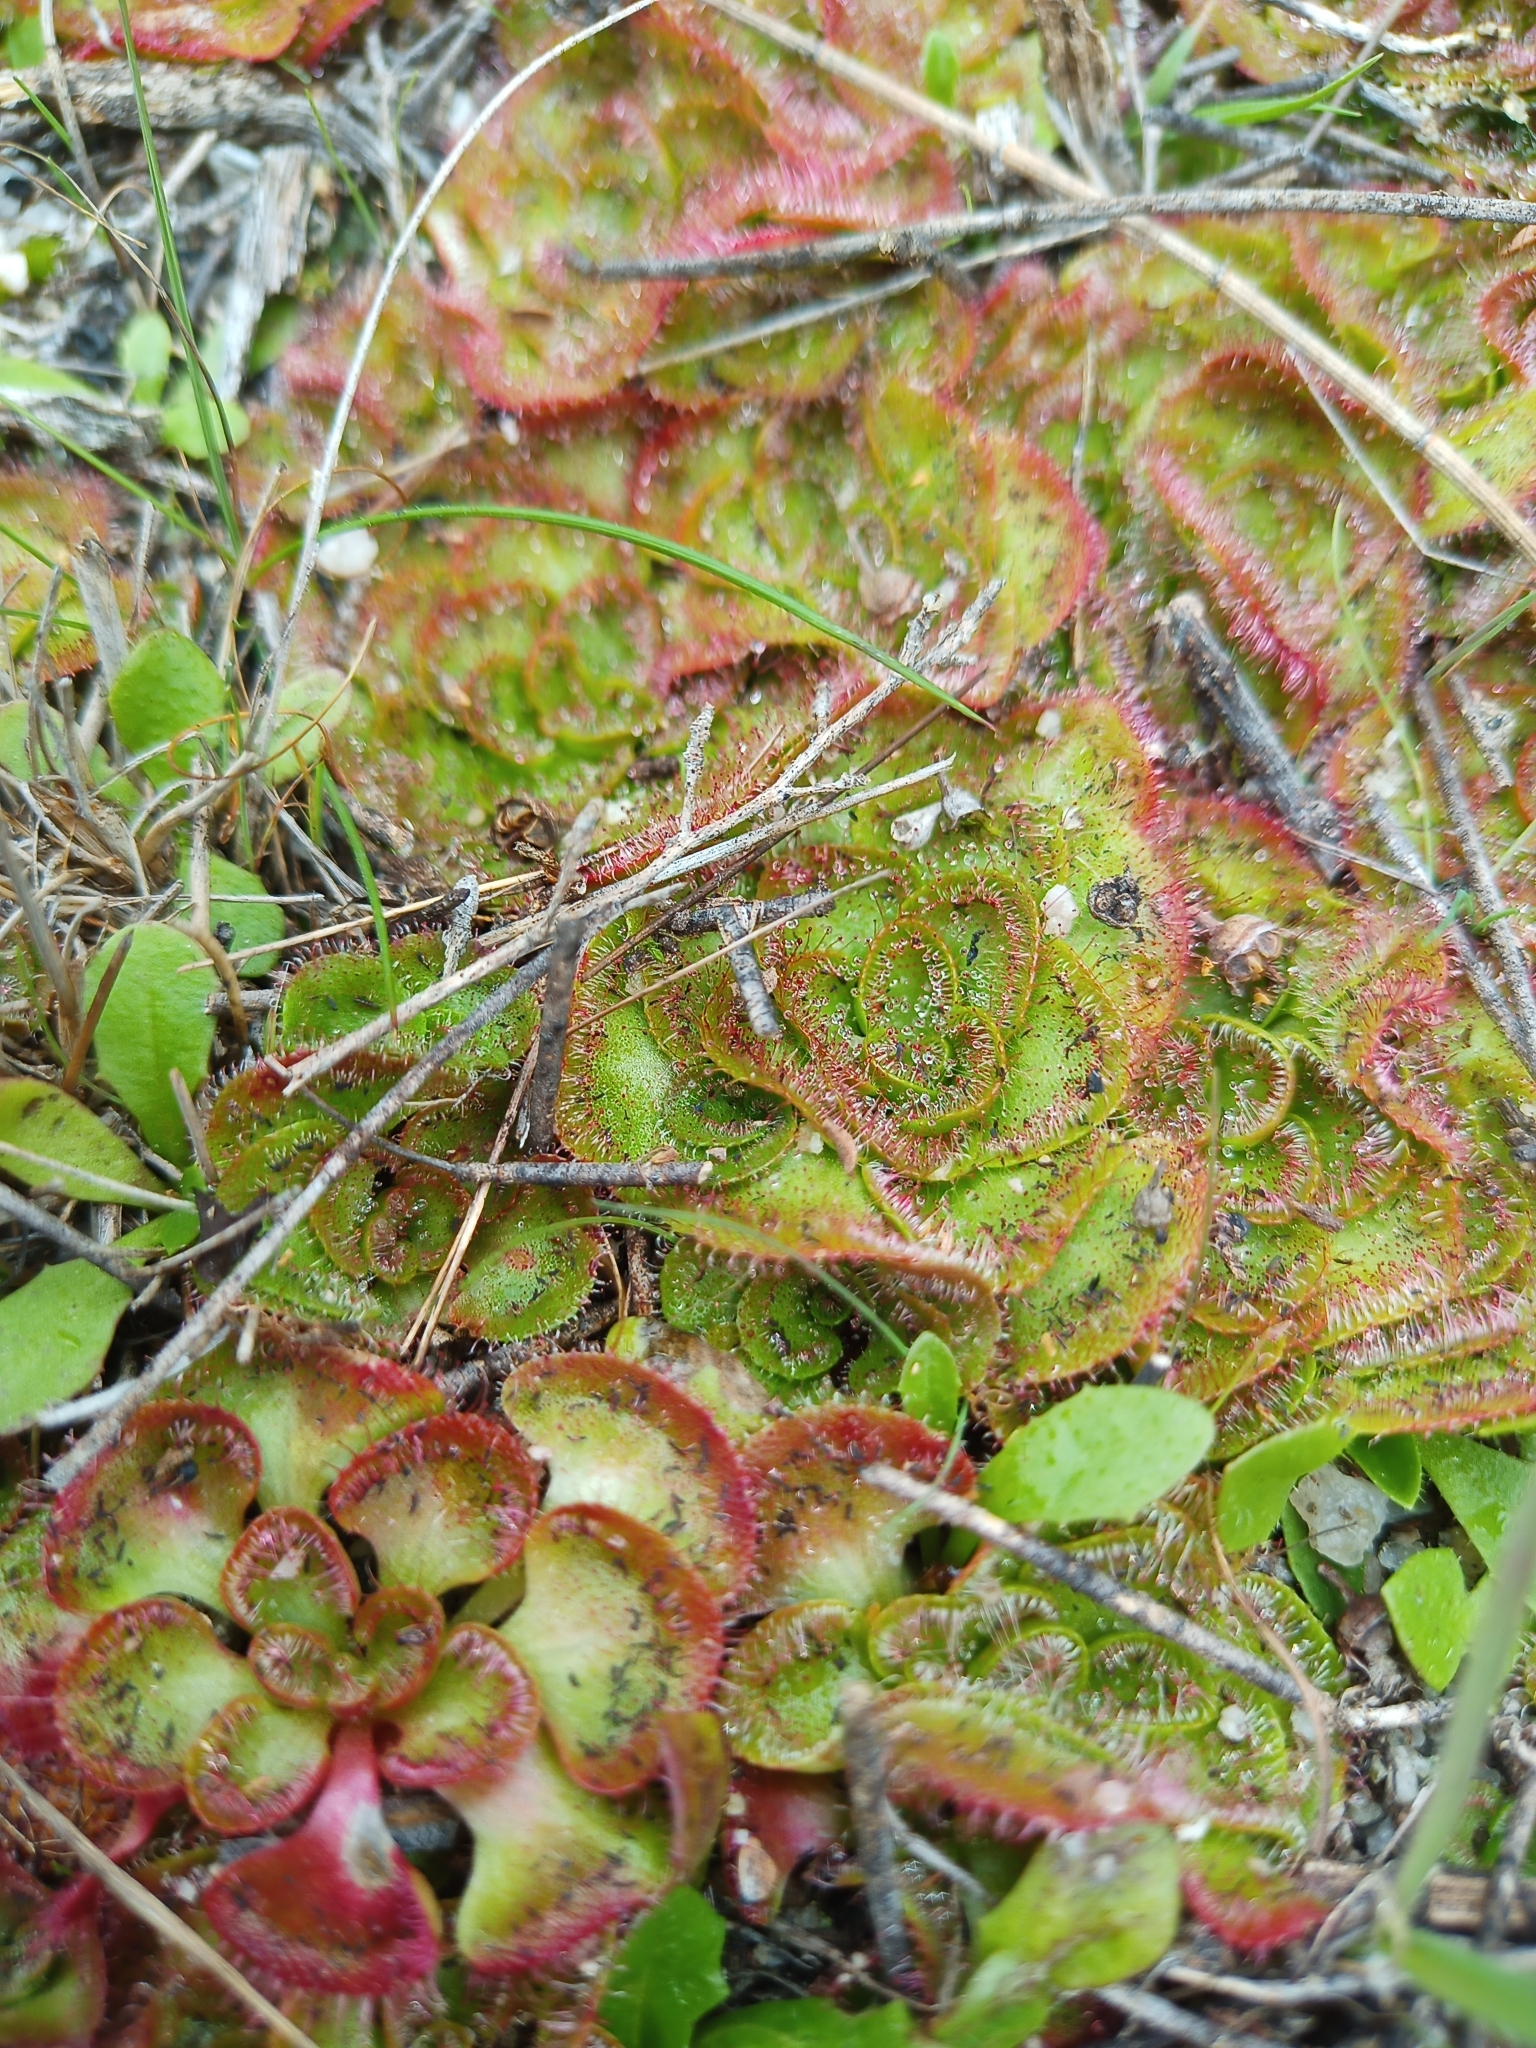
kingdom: Plantae
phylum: Tracheophyta
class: Magnoliopsida
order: Caryophyllales
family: Droseraceae
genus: Drosera
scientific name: Drosera zonaria
